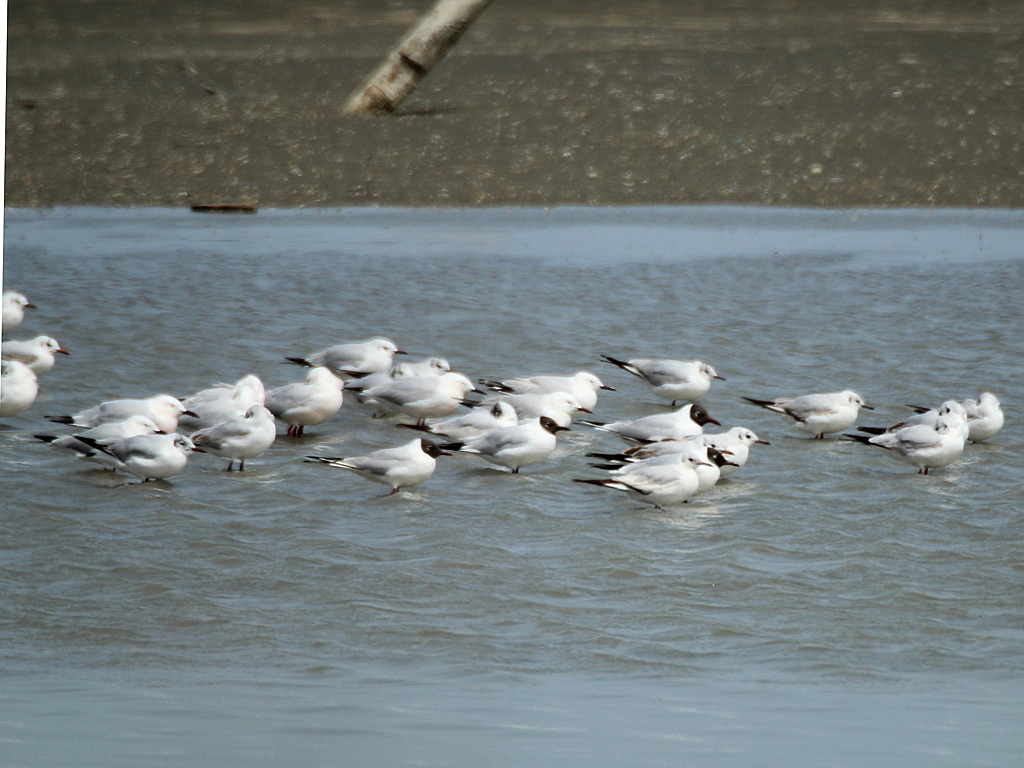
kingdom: Animalia
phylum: Chordata
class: Aves
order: Charadriiformes
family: Laridae
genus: Chroicocephalus
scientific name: Chroicocephalus ridibundus
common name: Black-headed gull
